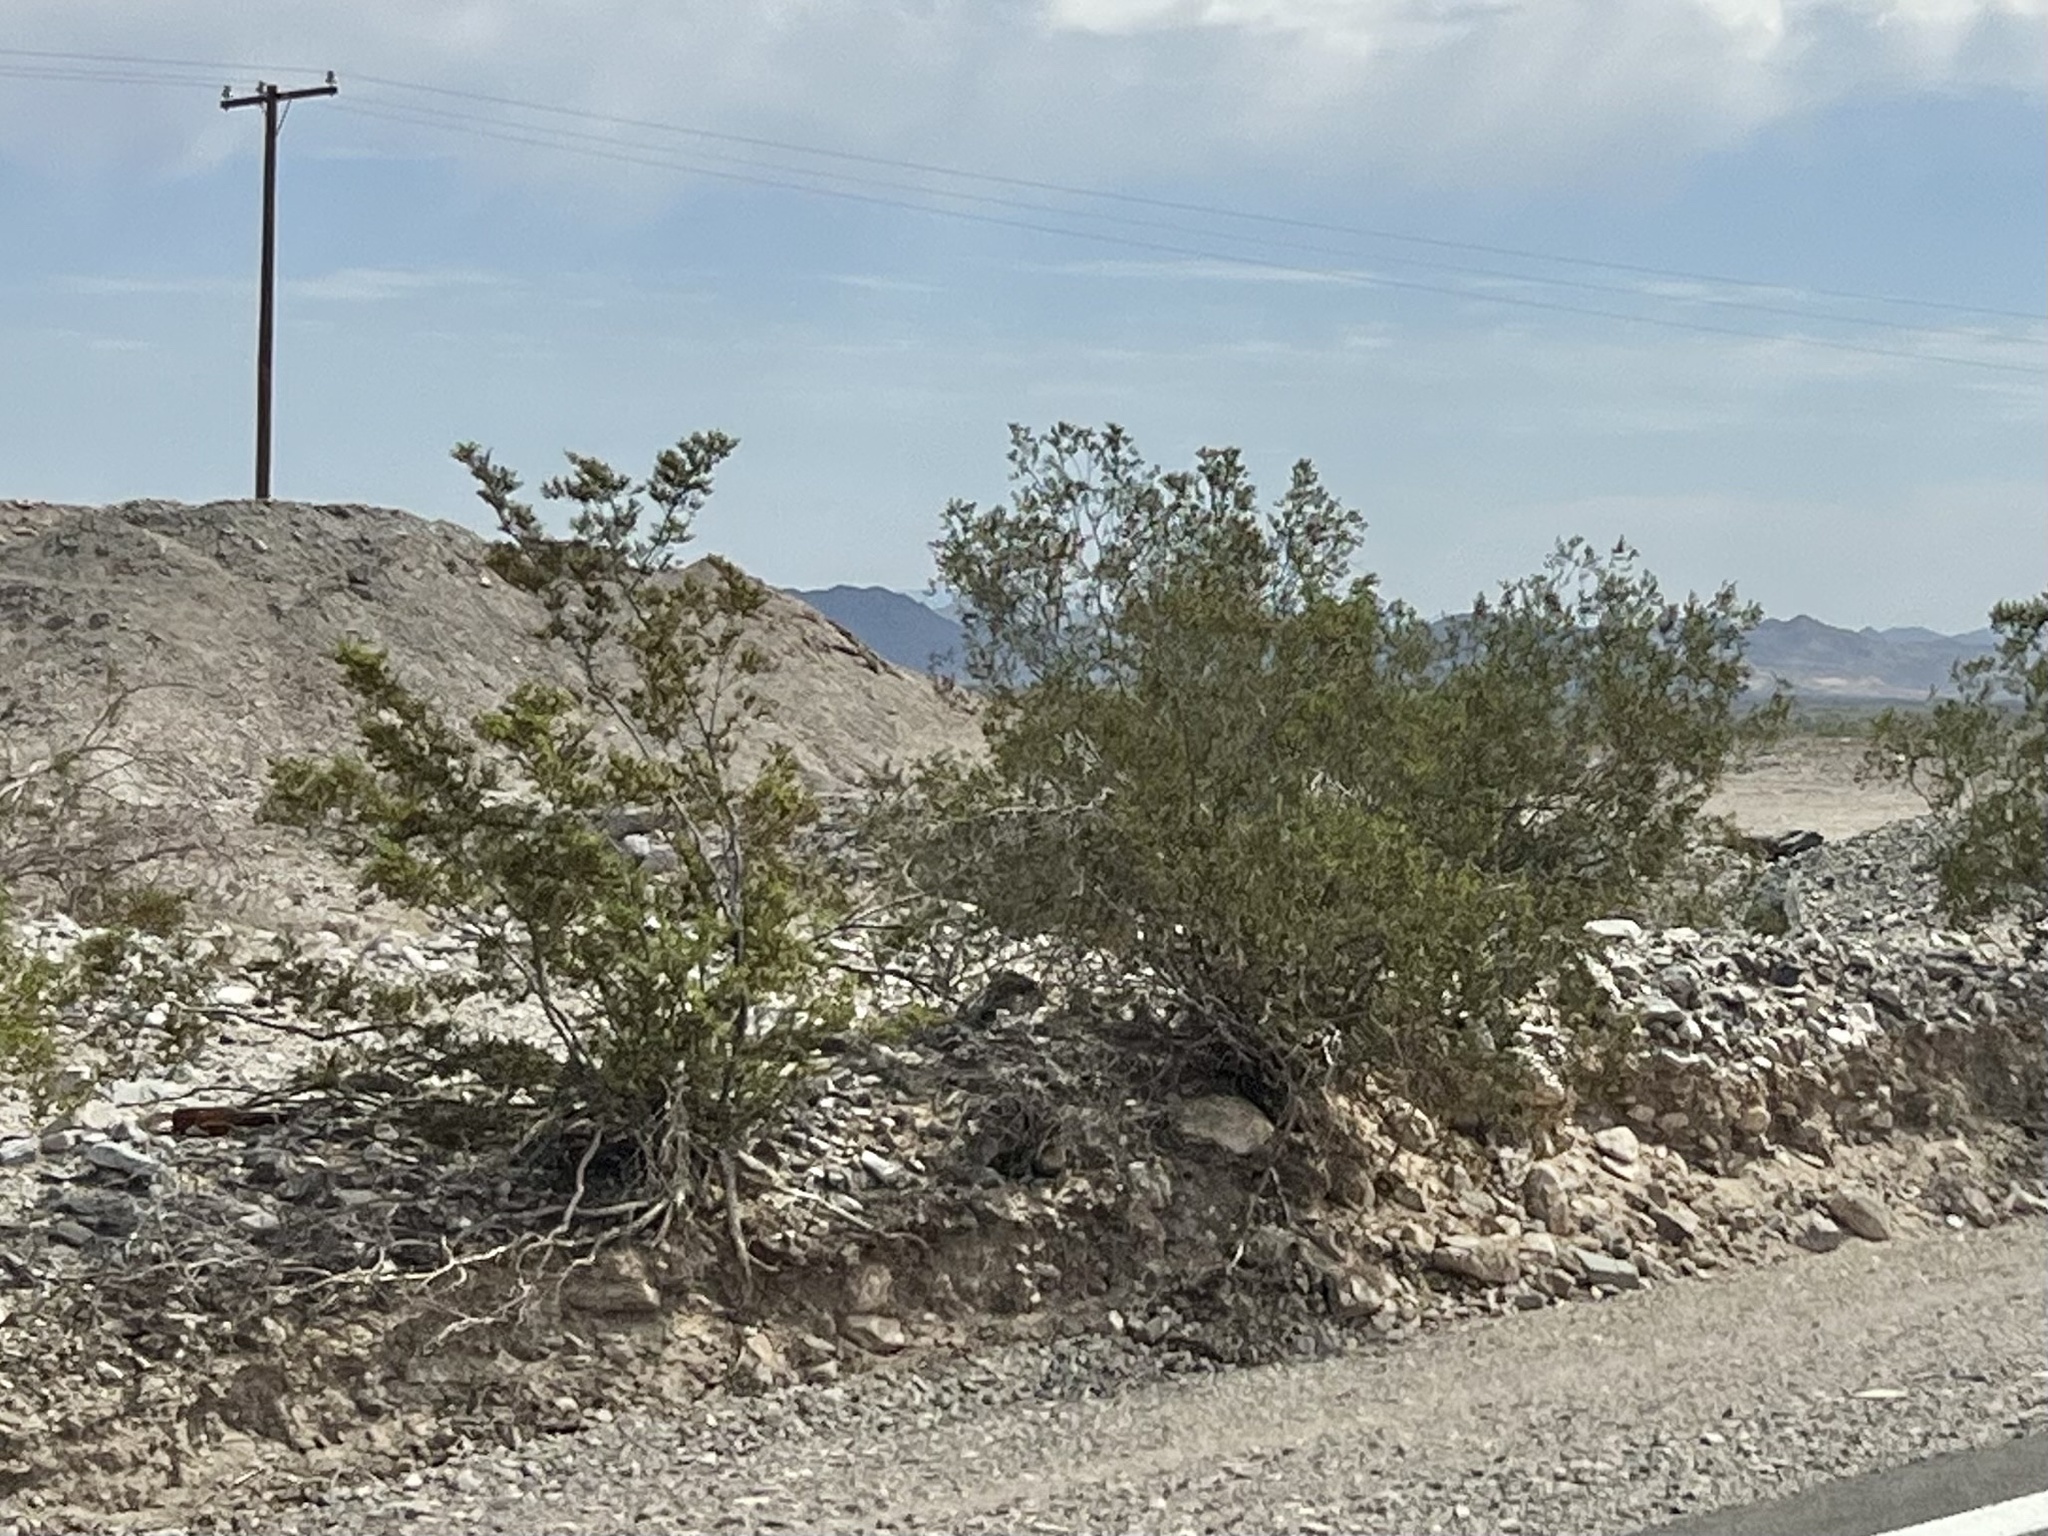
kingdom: Plantae
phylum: Tracheophyta
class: Magnoliopsida
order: Zygophyllales
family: Zygophyllaceae
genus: Larrea
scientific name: Larrea tridentata
